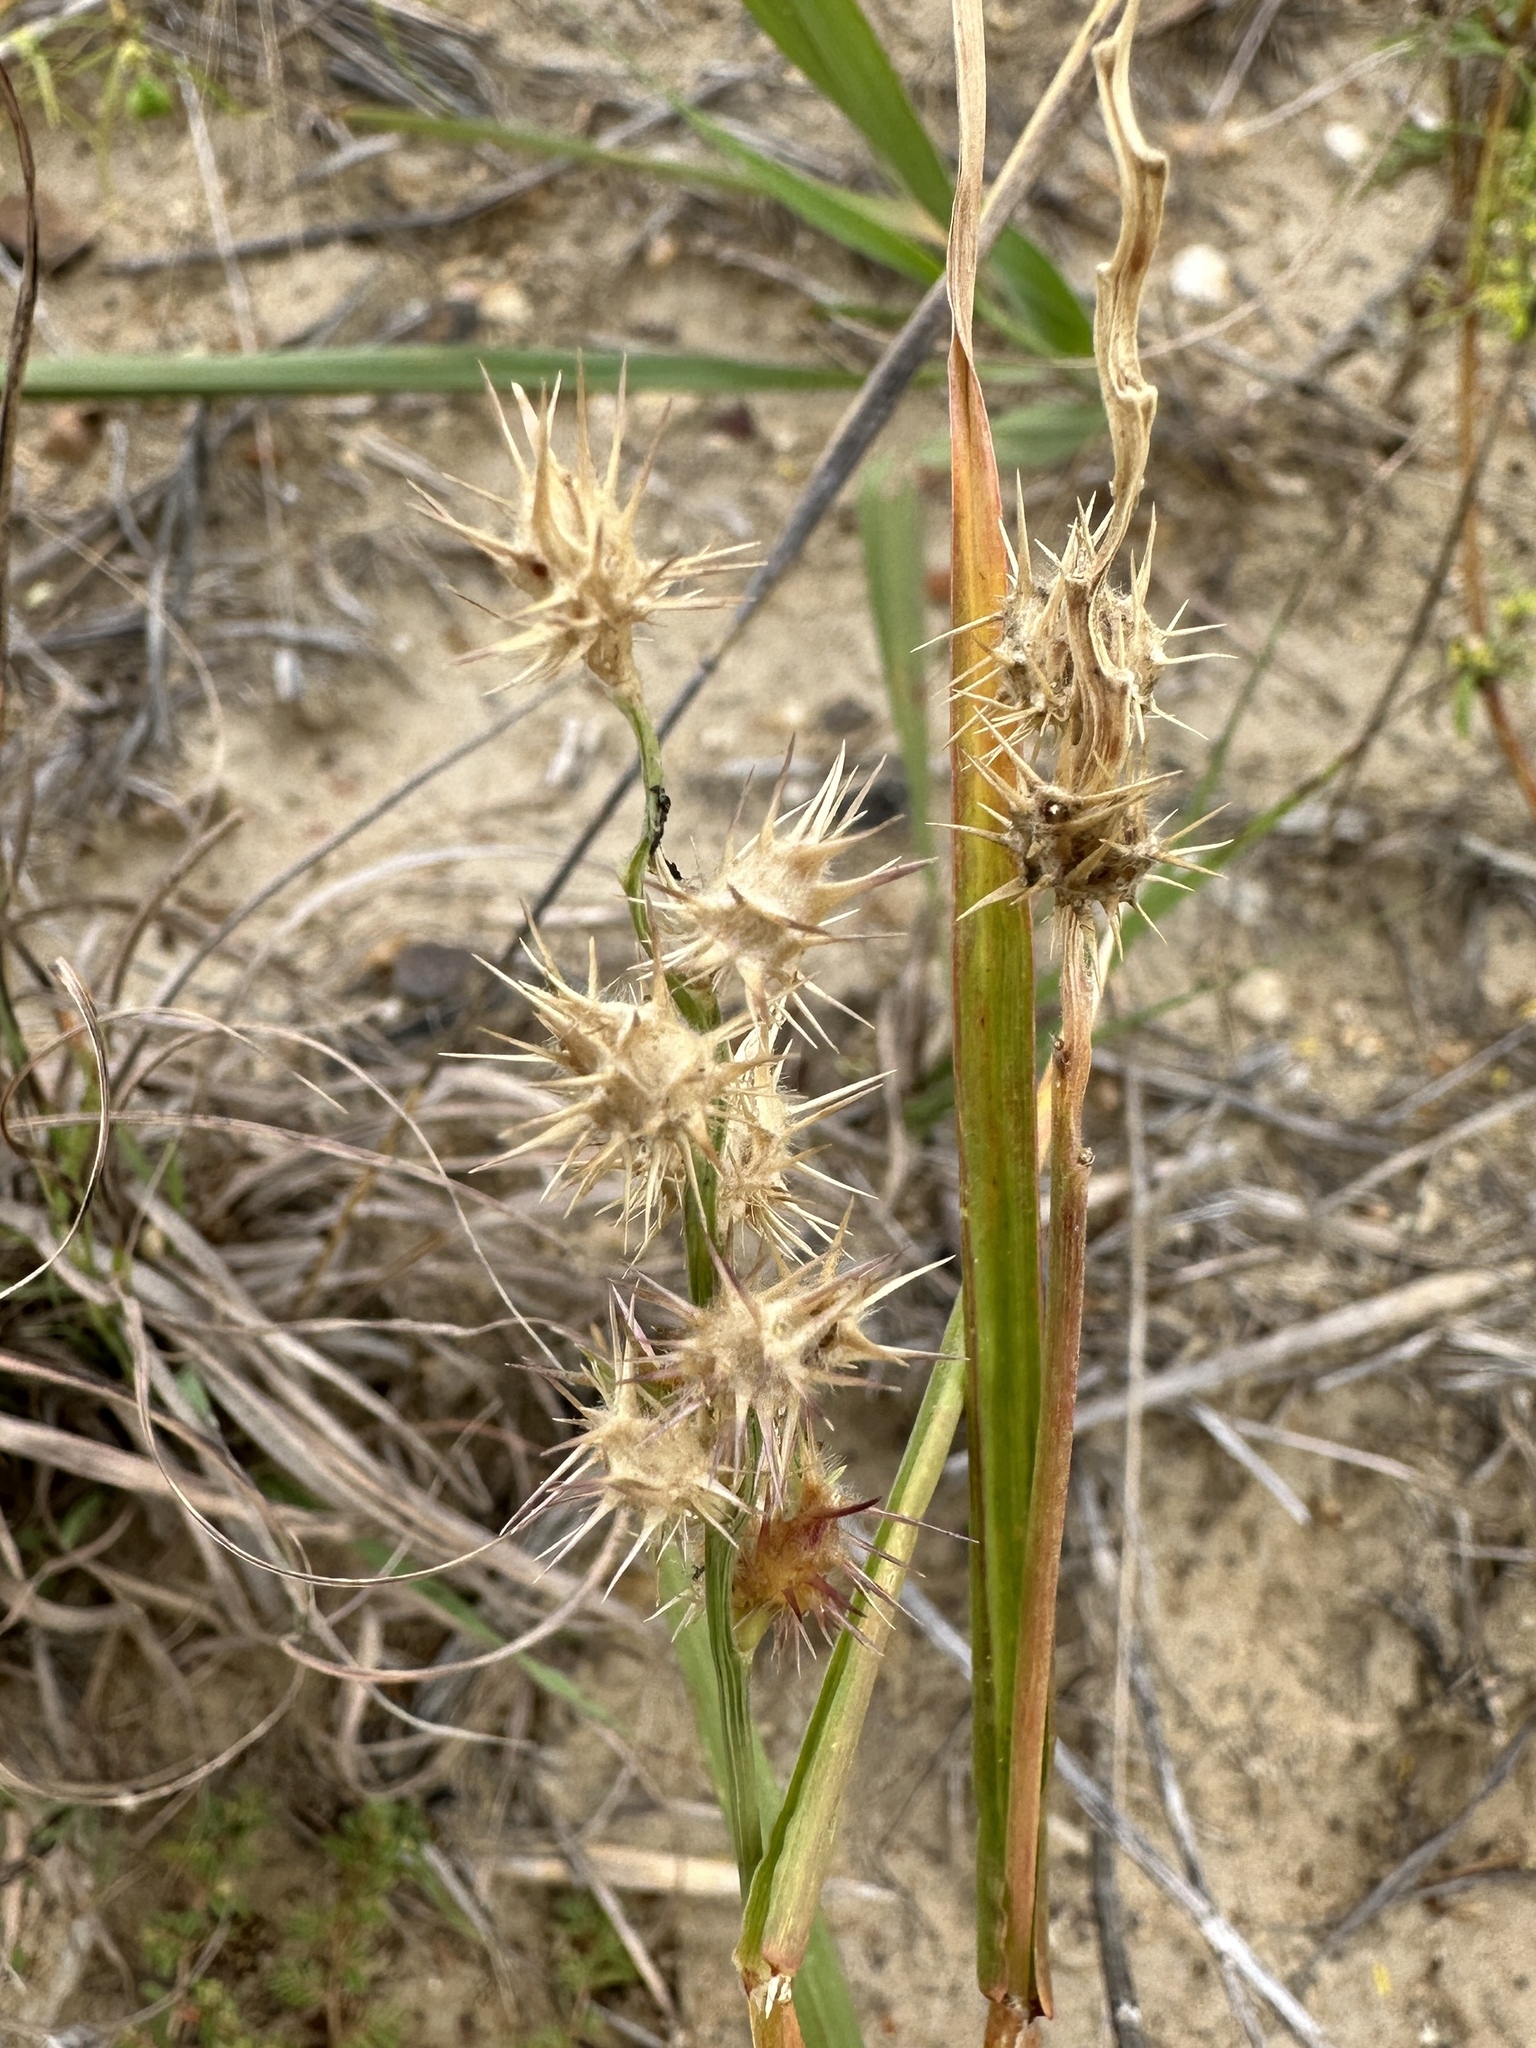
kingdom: Plantae
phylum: Tracheophyta
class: Liliopsida
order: Poales
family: Poaceae
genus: Cenchrus
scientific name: Cenchrus longispinus
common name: Mat sandbur
